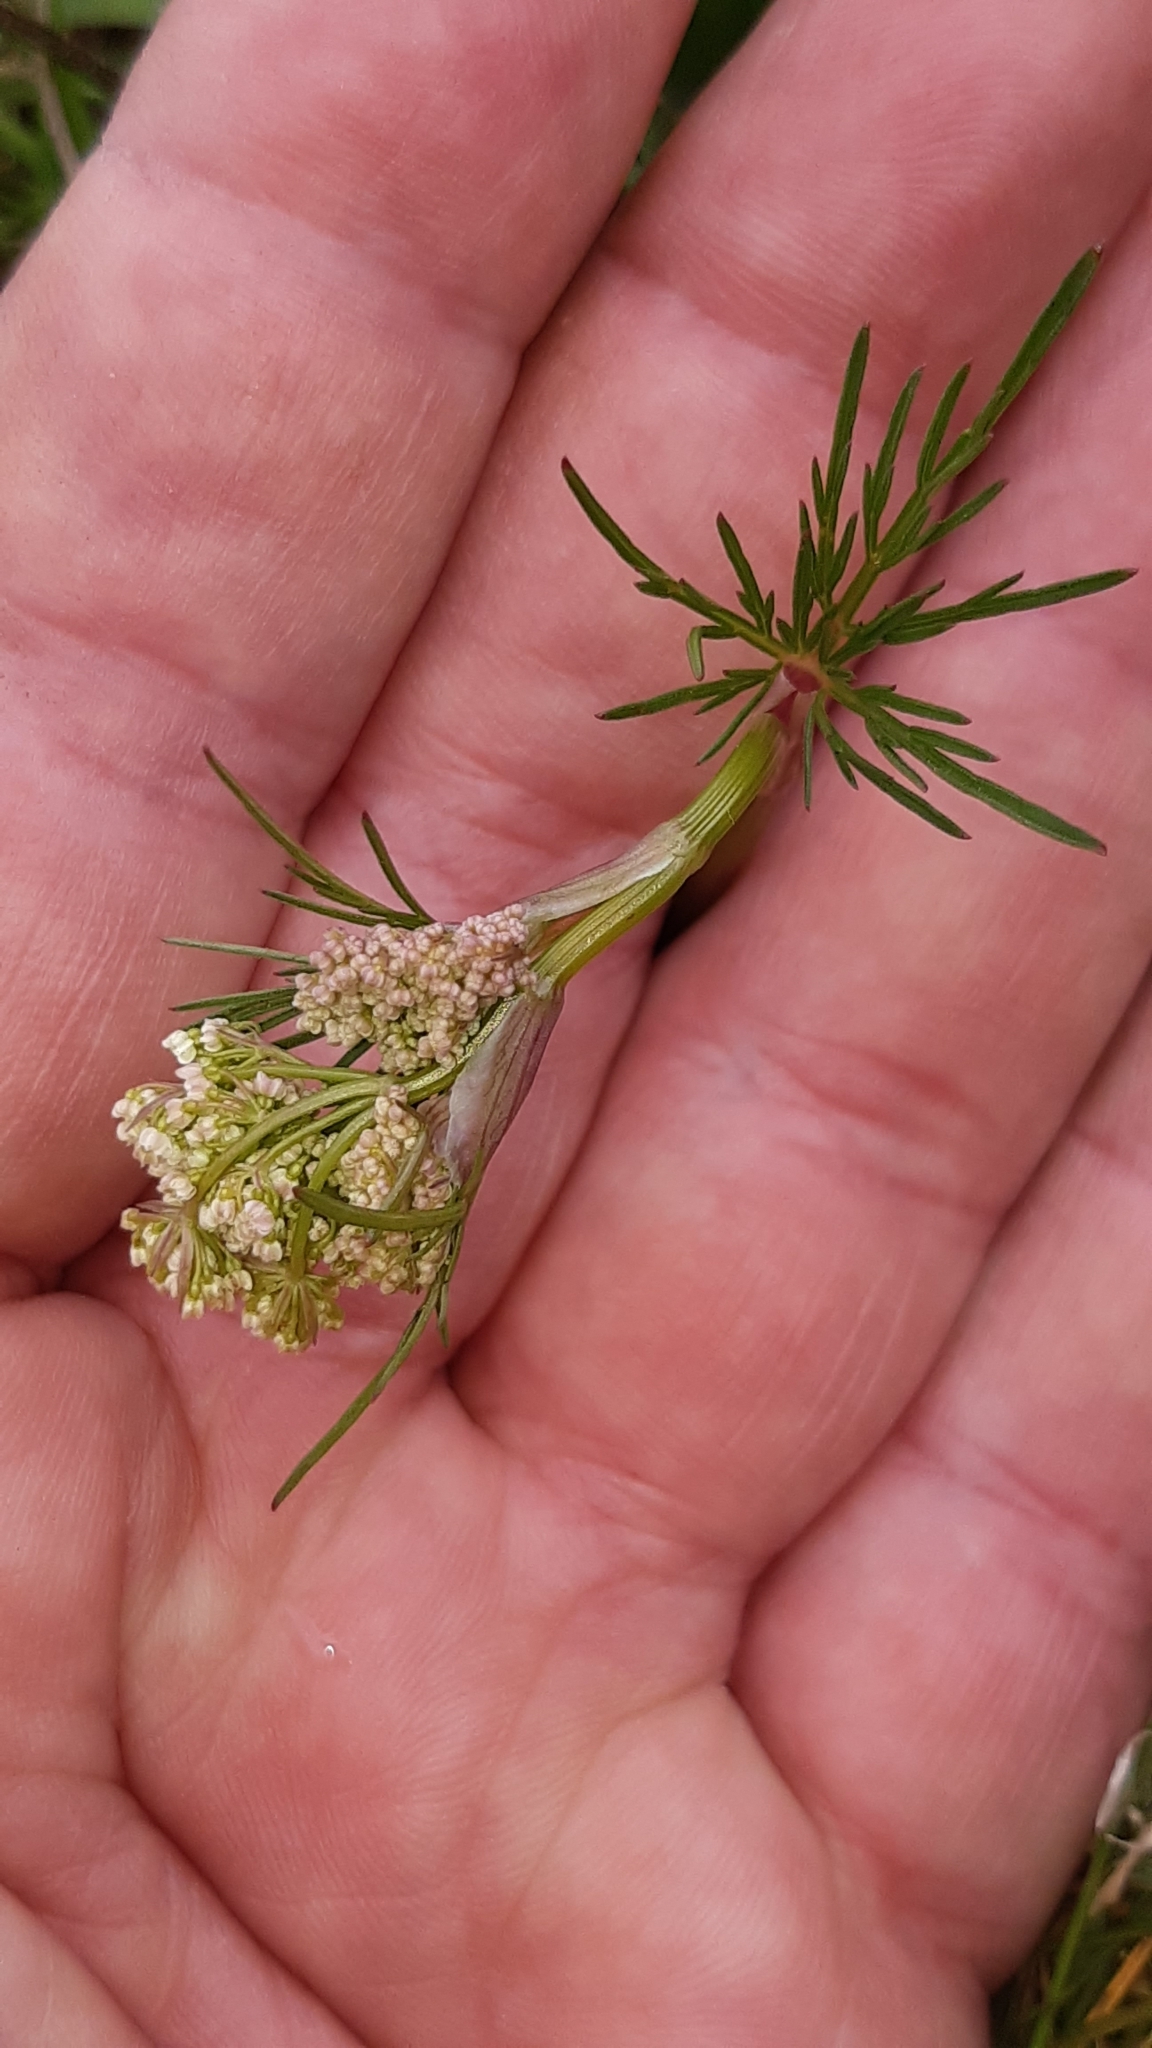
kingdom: Plantae
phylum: Tracheophyta
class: Magnoliopsida
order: Apiales
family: Apiaceae
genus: Conopodium
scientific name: Conopodium majus
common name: Pignut
